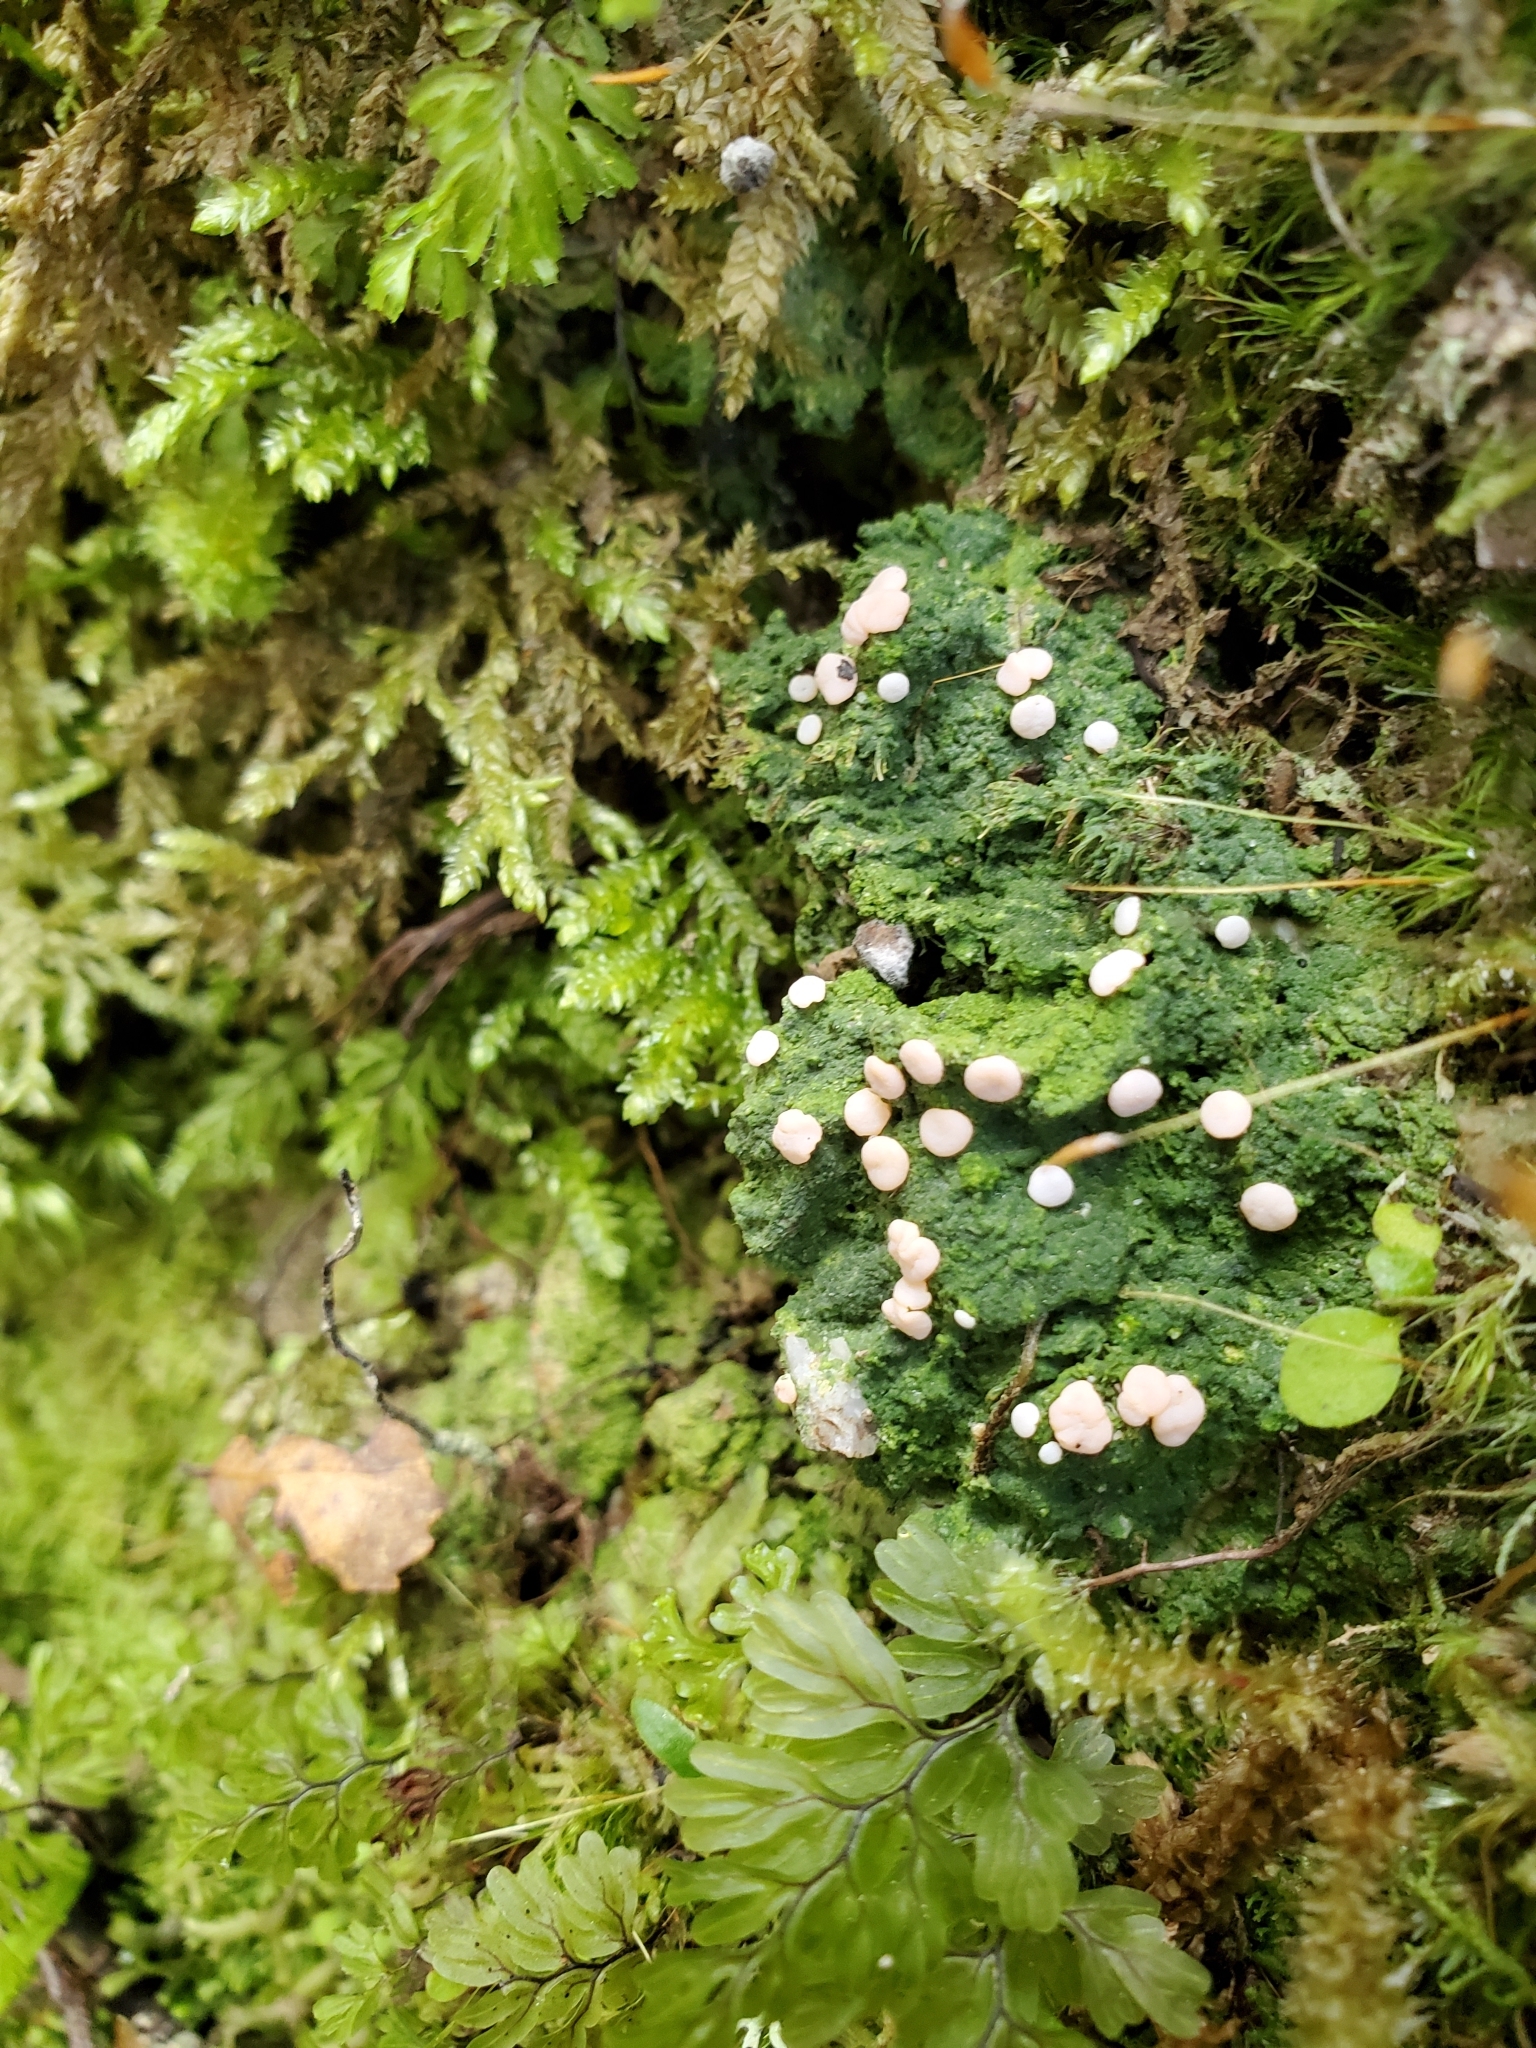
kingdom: Fungi
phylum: Ascomycota
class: Lecanoromycetes
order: Pertusariales
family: Icmadophilaceae
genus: Dibaeis
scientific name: Dibaeis absoluta
